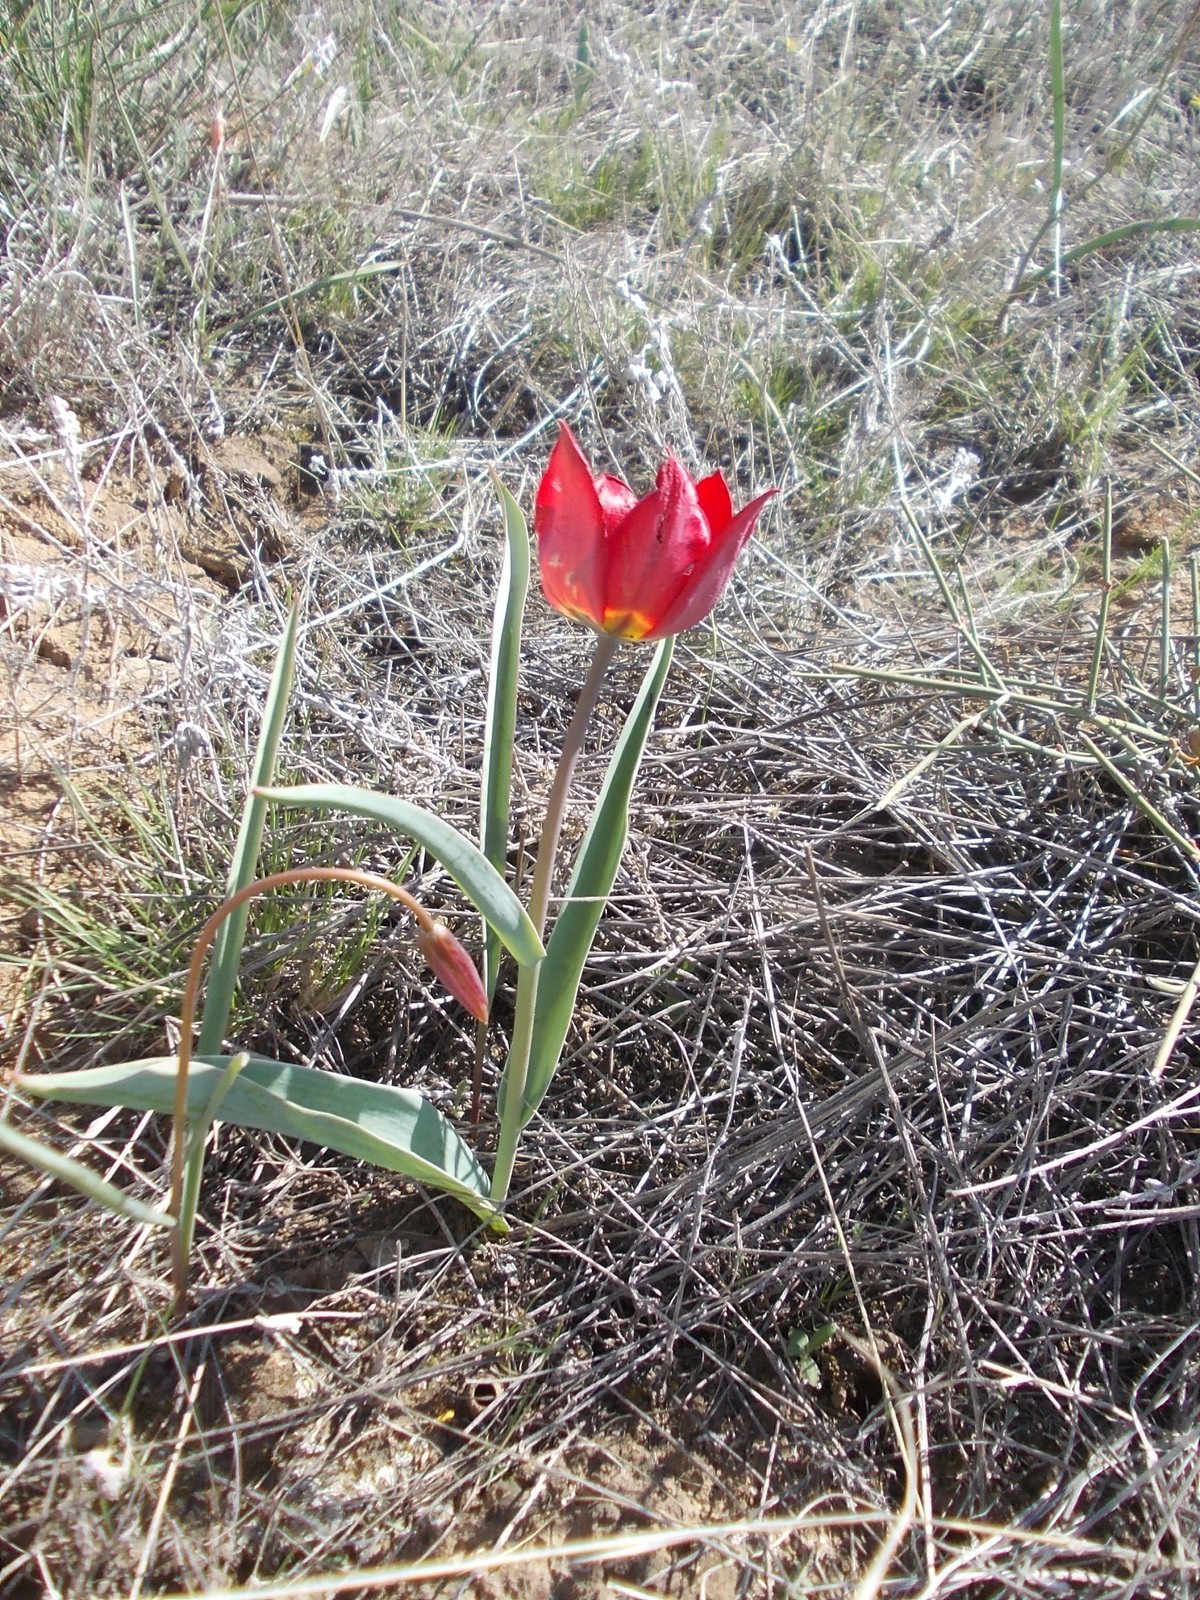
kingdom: Plantae
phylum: Tracheophyta
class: Liliopsida
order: Liliales
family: Liliaceae
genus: Tulipa
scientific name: Tulipa suaveolens
